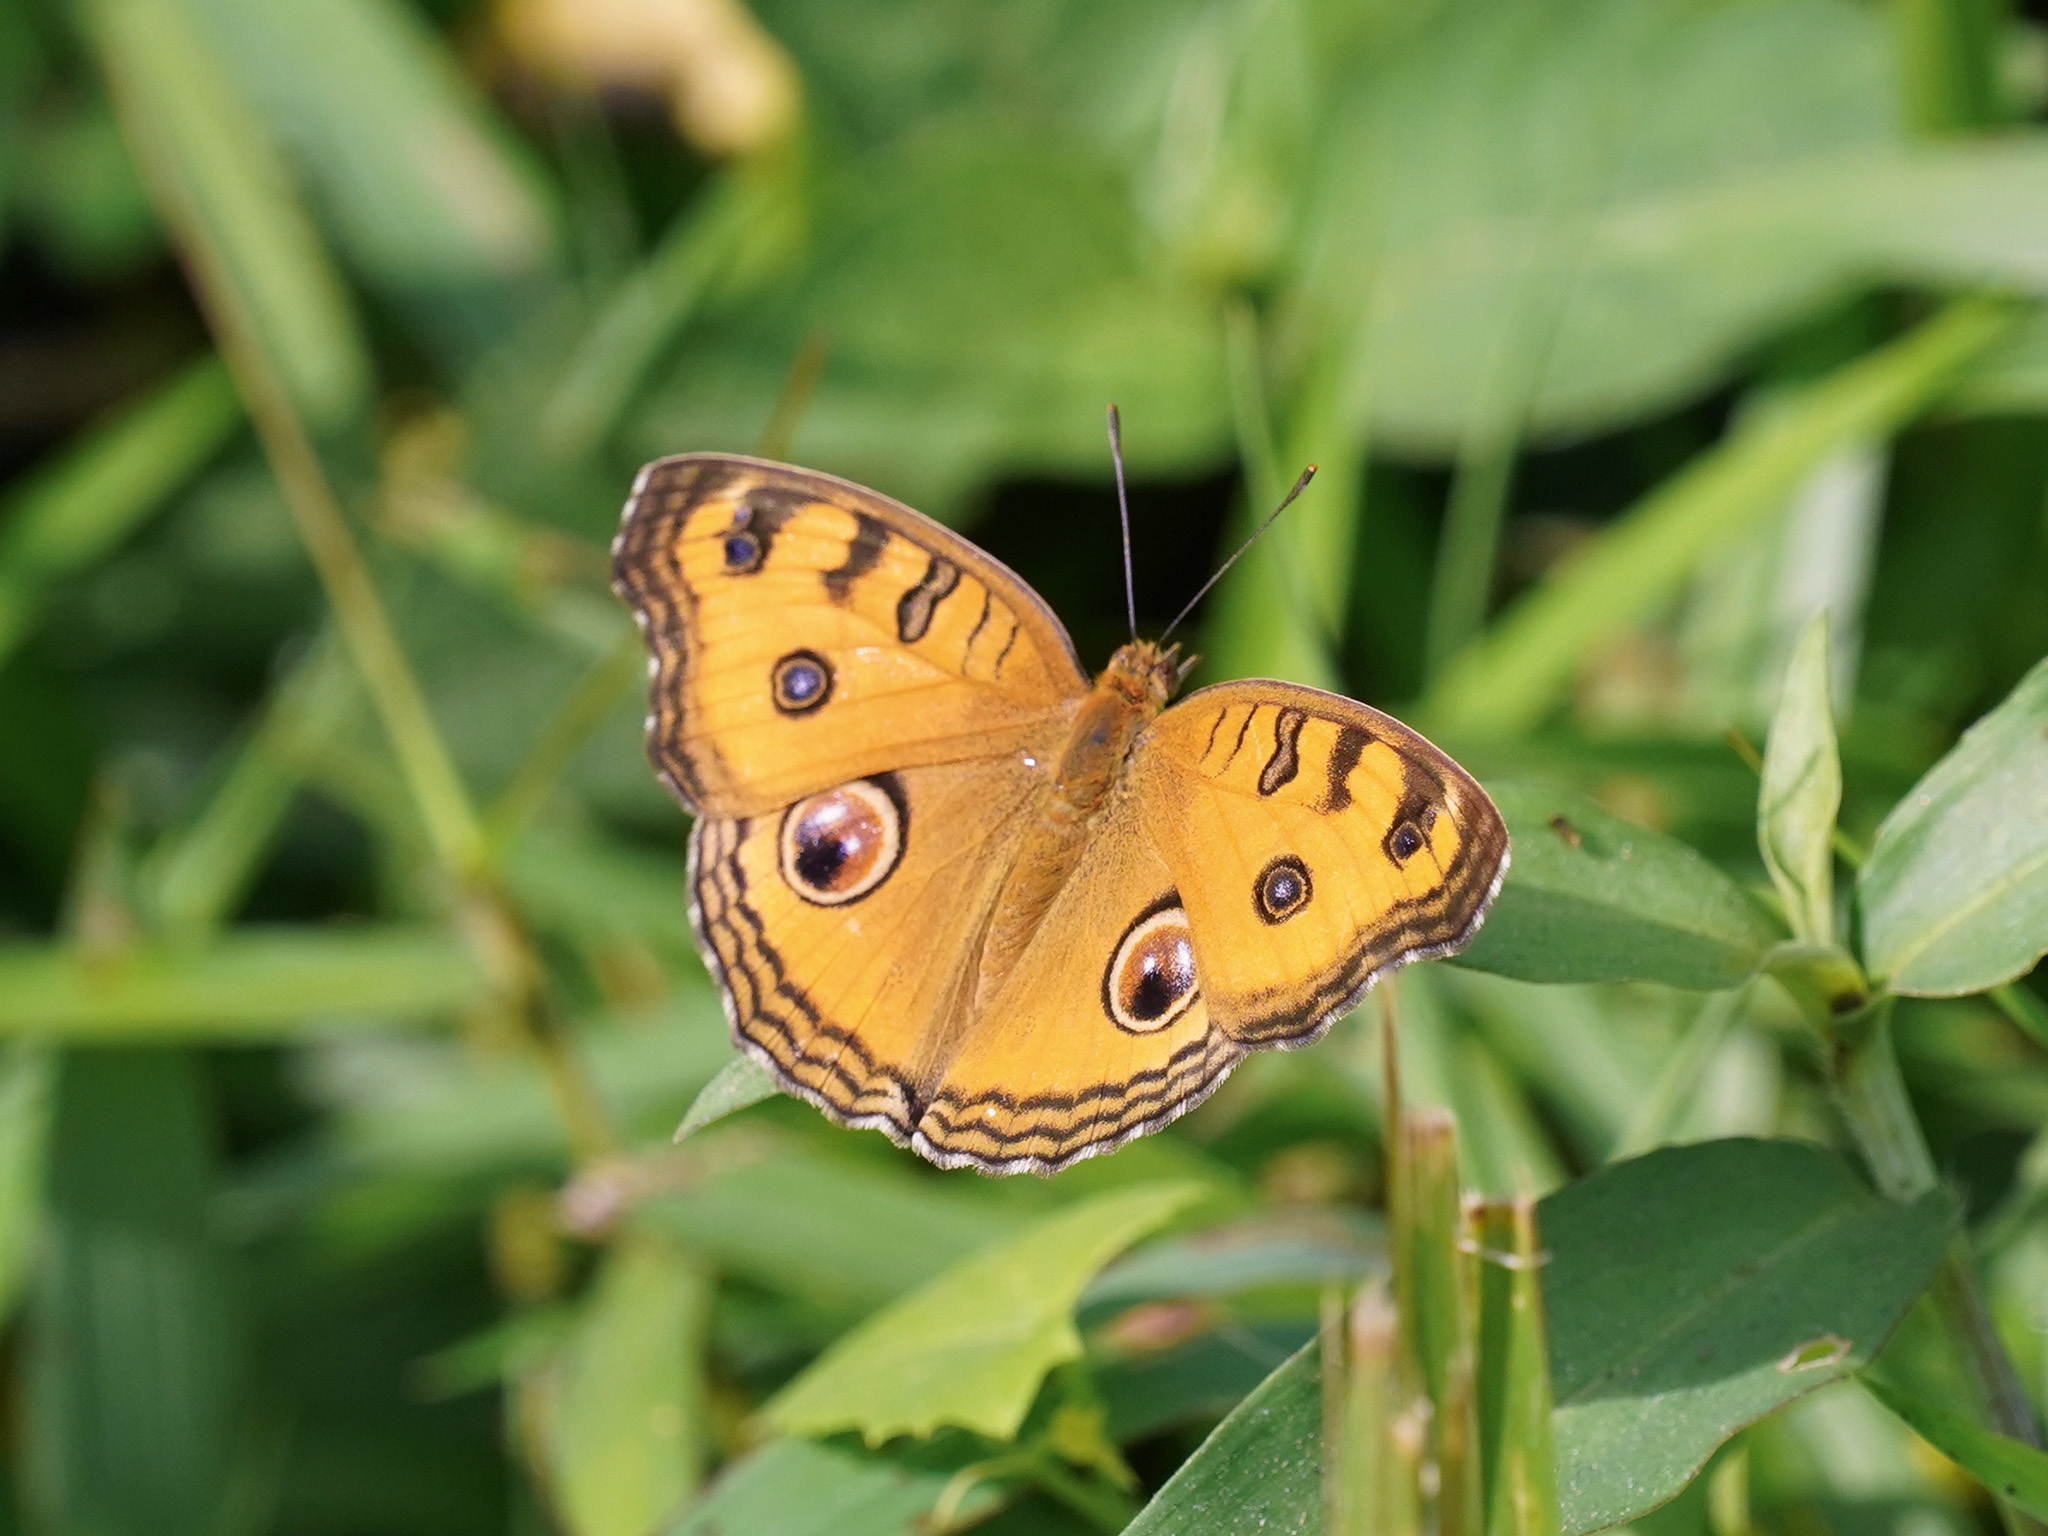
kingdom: Animalia
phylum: Arthropoda
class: Insecta
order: Lepidoptera
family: Nymphalidae
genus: Junonia
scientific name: Junonia almana
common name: Peacock pansy
